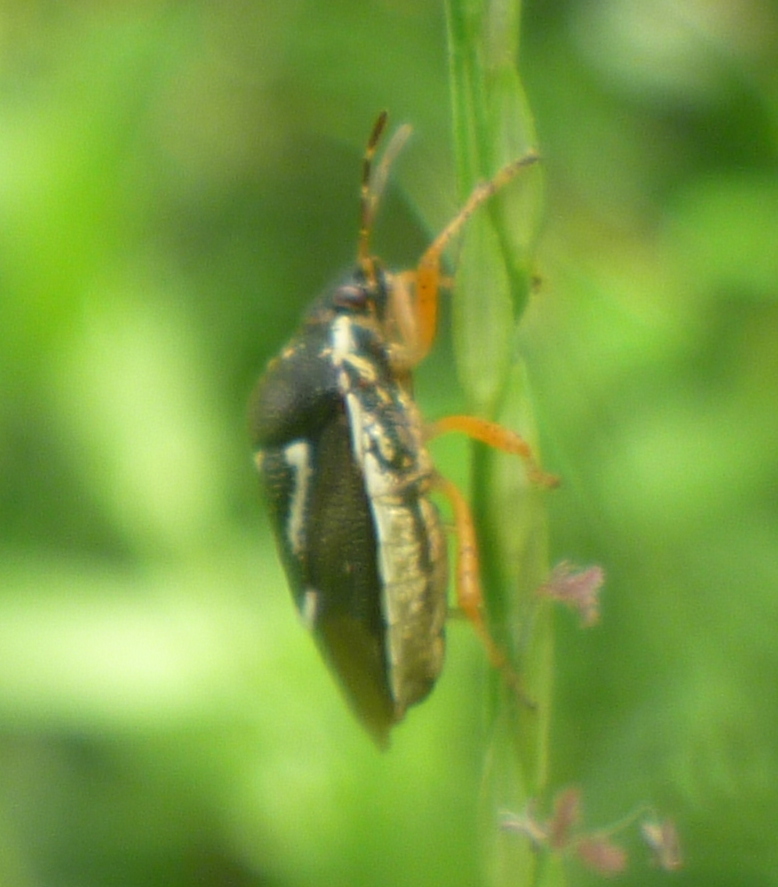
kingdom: Animalia
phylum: Arthropoda
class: Insecta
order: Hemiptera
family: Pentatomidae
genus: Mormidea
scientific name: Mormidea pama
